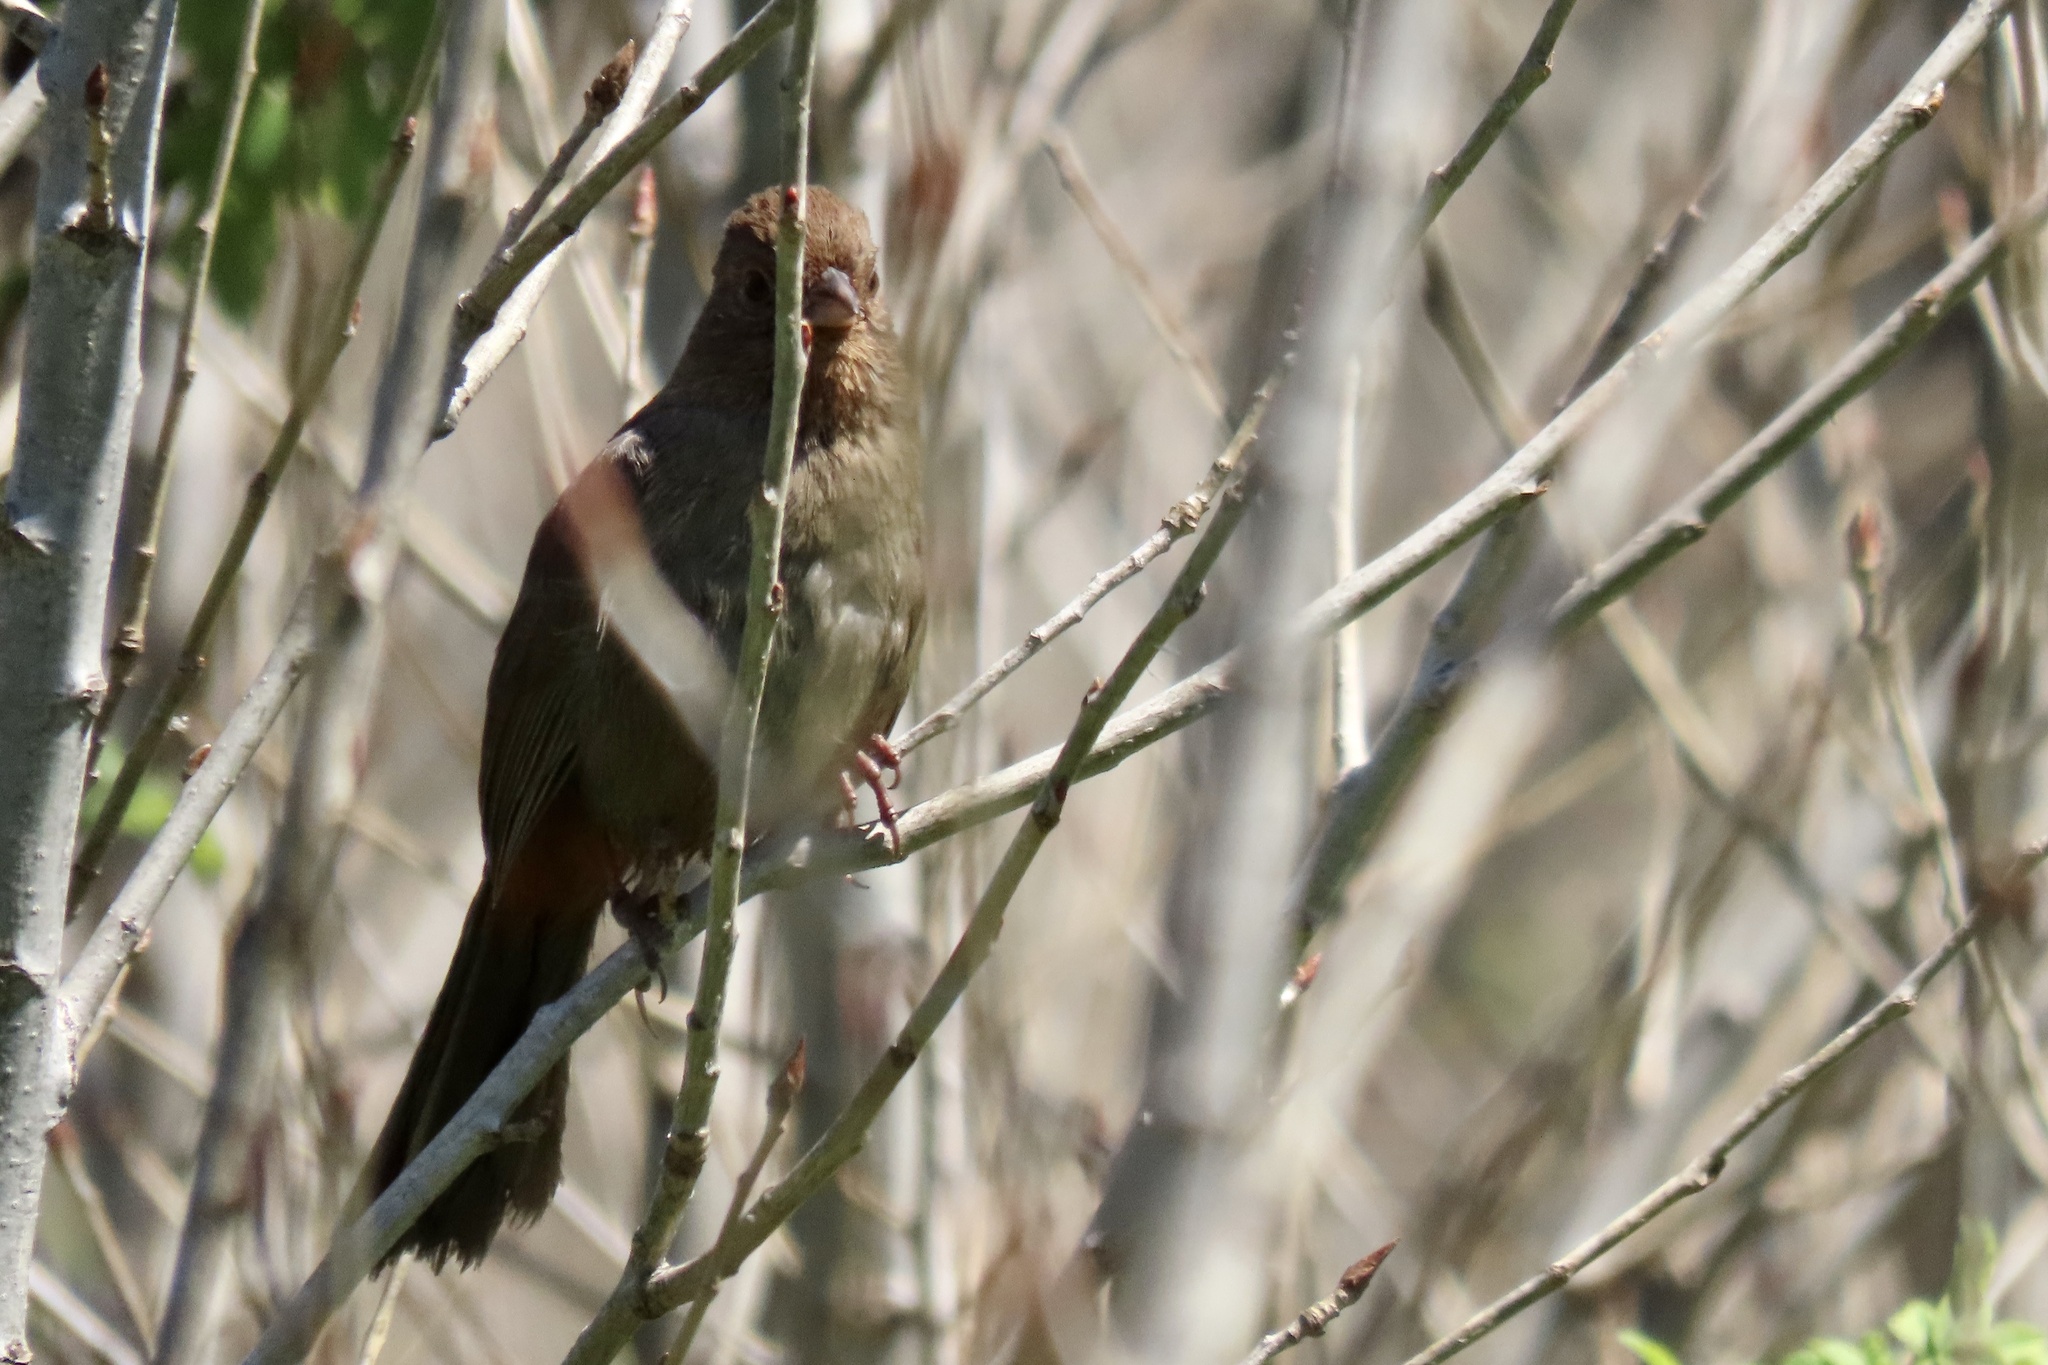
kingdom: Animalia
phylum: Chordata
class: Aves
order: Passeriformes
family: Passerellidae
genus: Melozone
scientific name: Melozone crissalis
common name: California towhee
